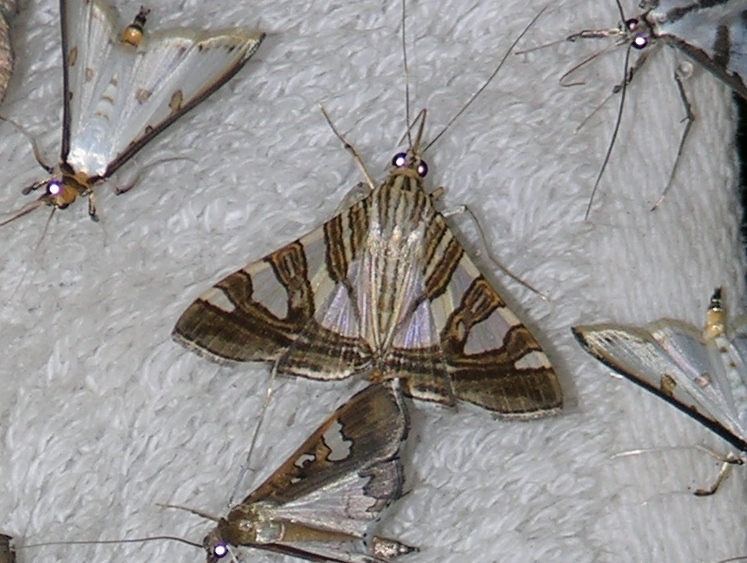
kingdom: Animalia
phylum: Arthropoda
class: Insecta
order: Lepidoptera
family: Crambidae
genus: Glyphodes
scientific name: Glyphodes stolalis
